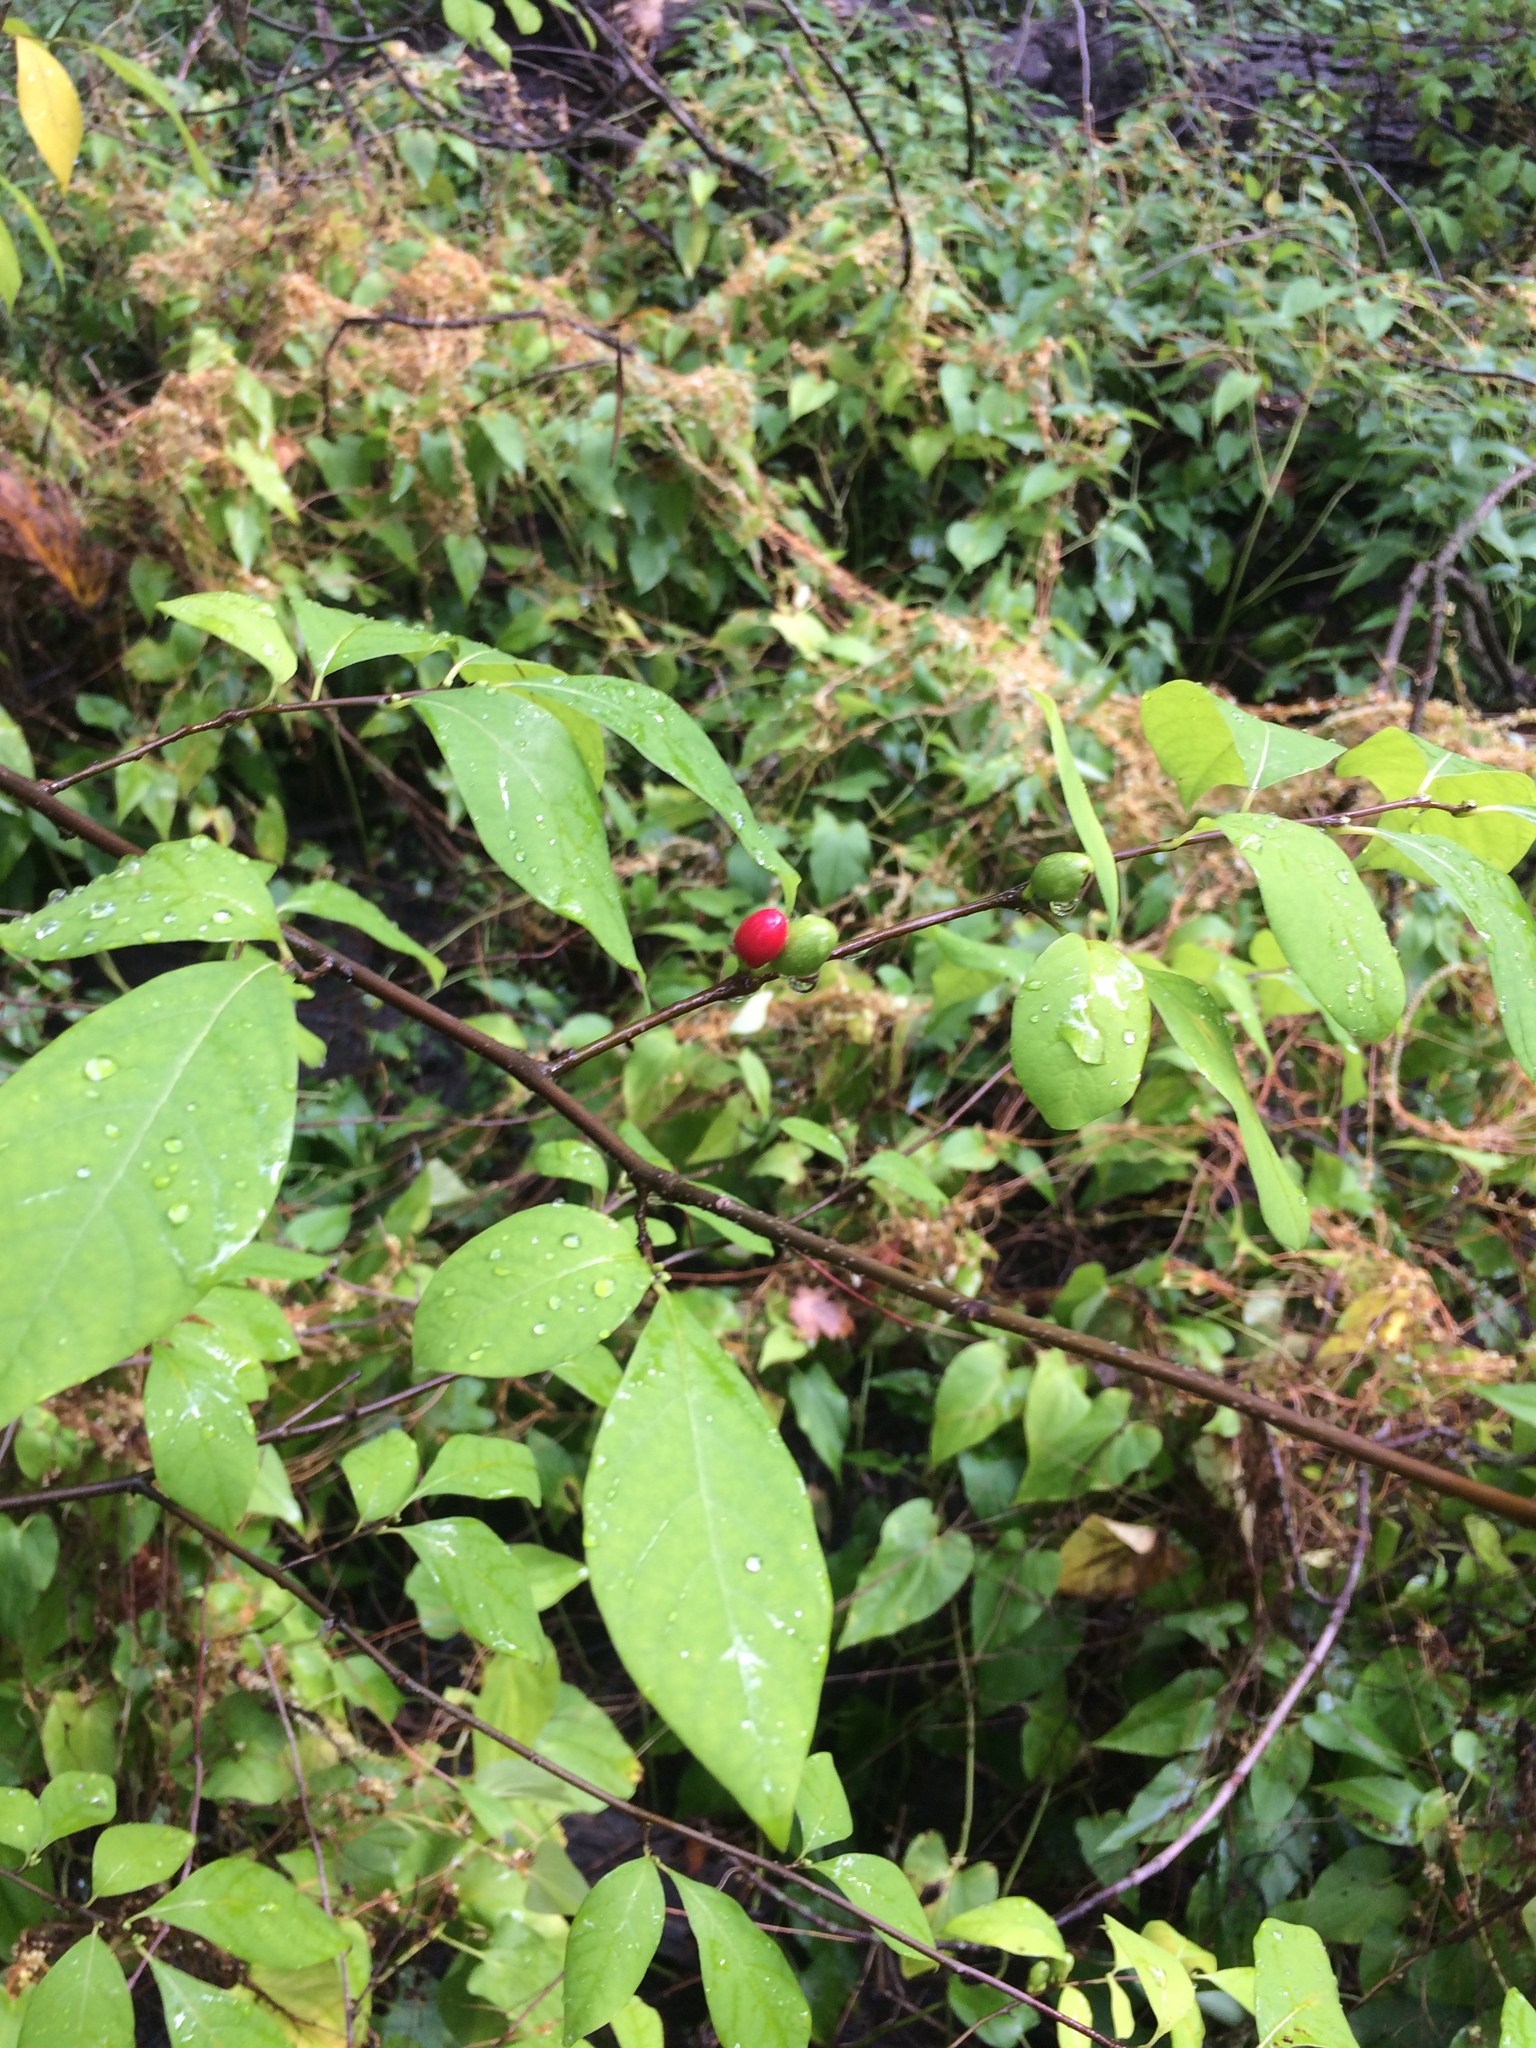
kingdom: Plantae
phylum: Tracheophyta
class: Magnoliopsida
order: Laurales
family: Lauraceae
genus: Lindera
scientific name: Lindera benzoin
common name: Spicebush
